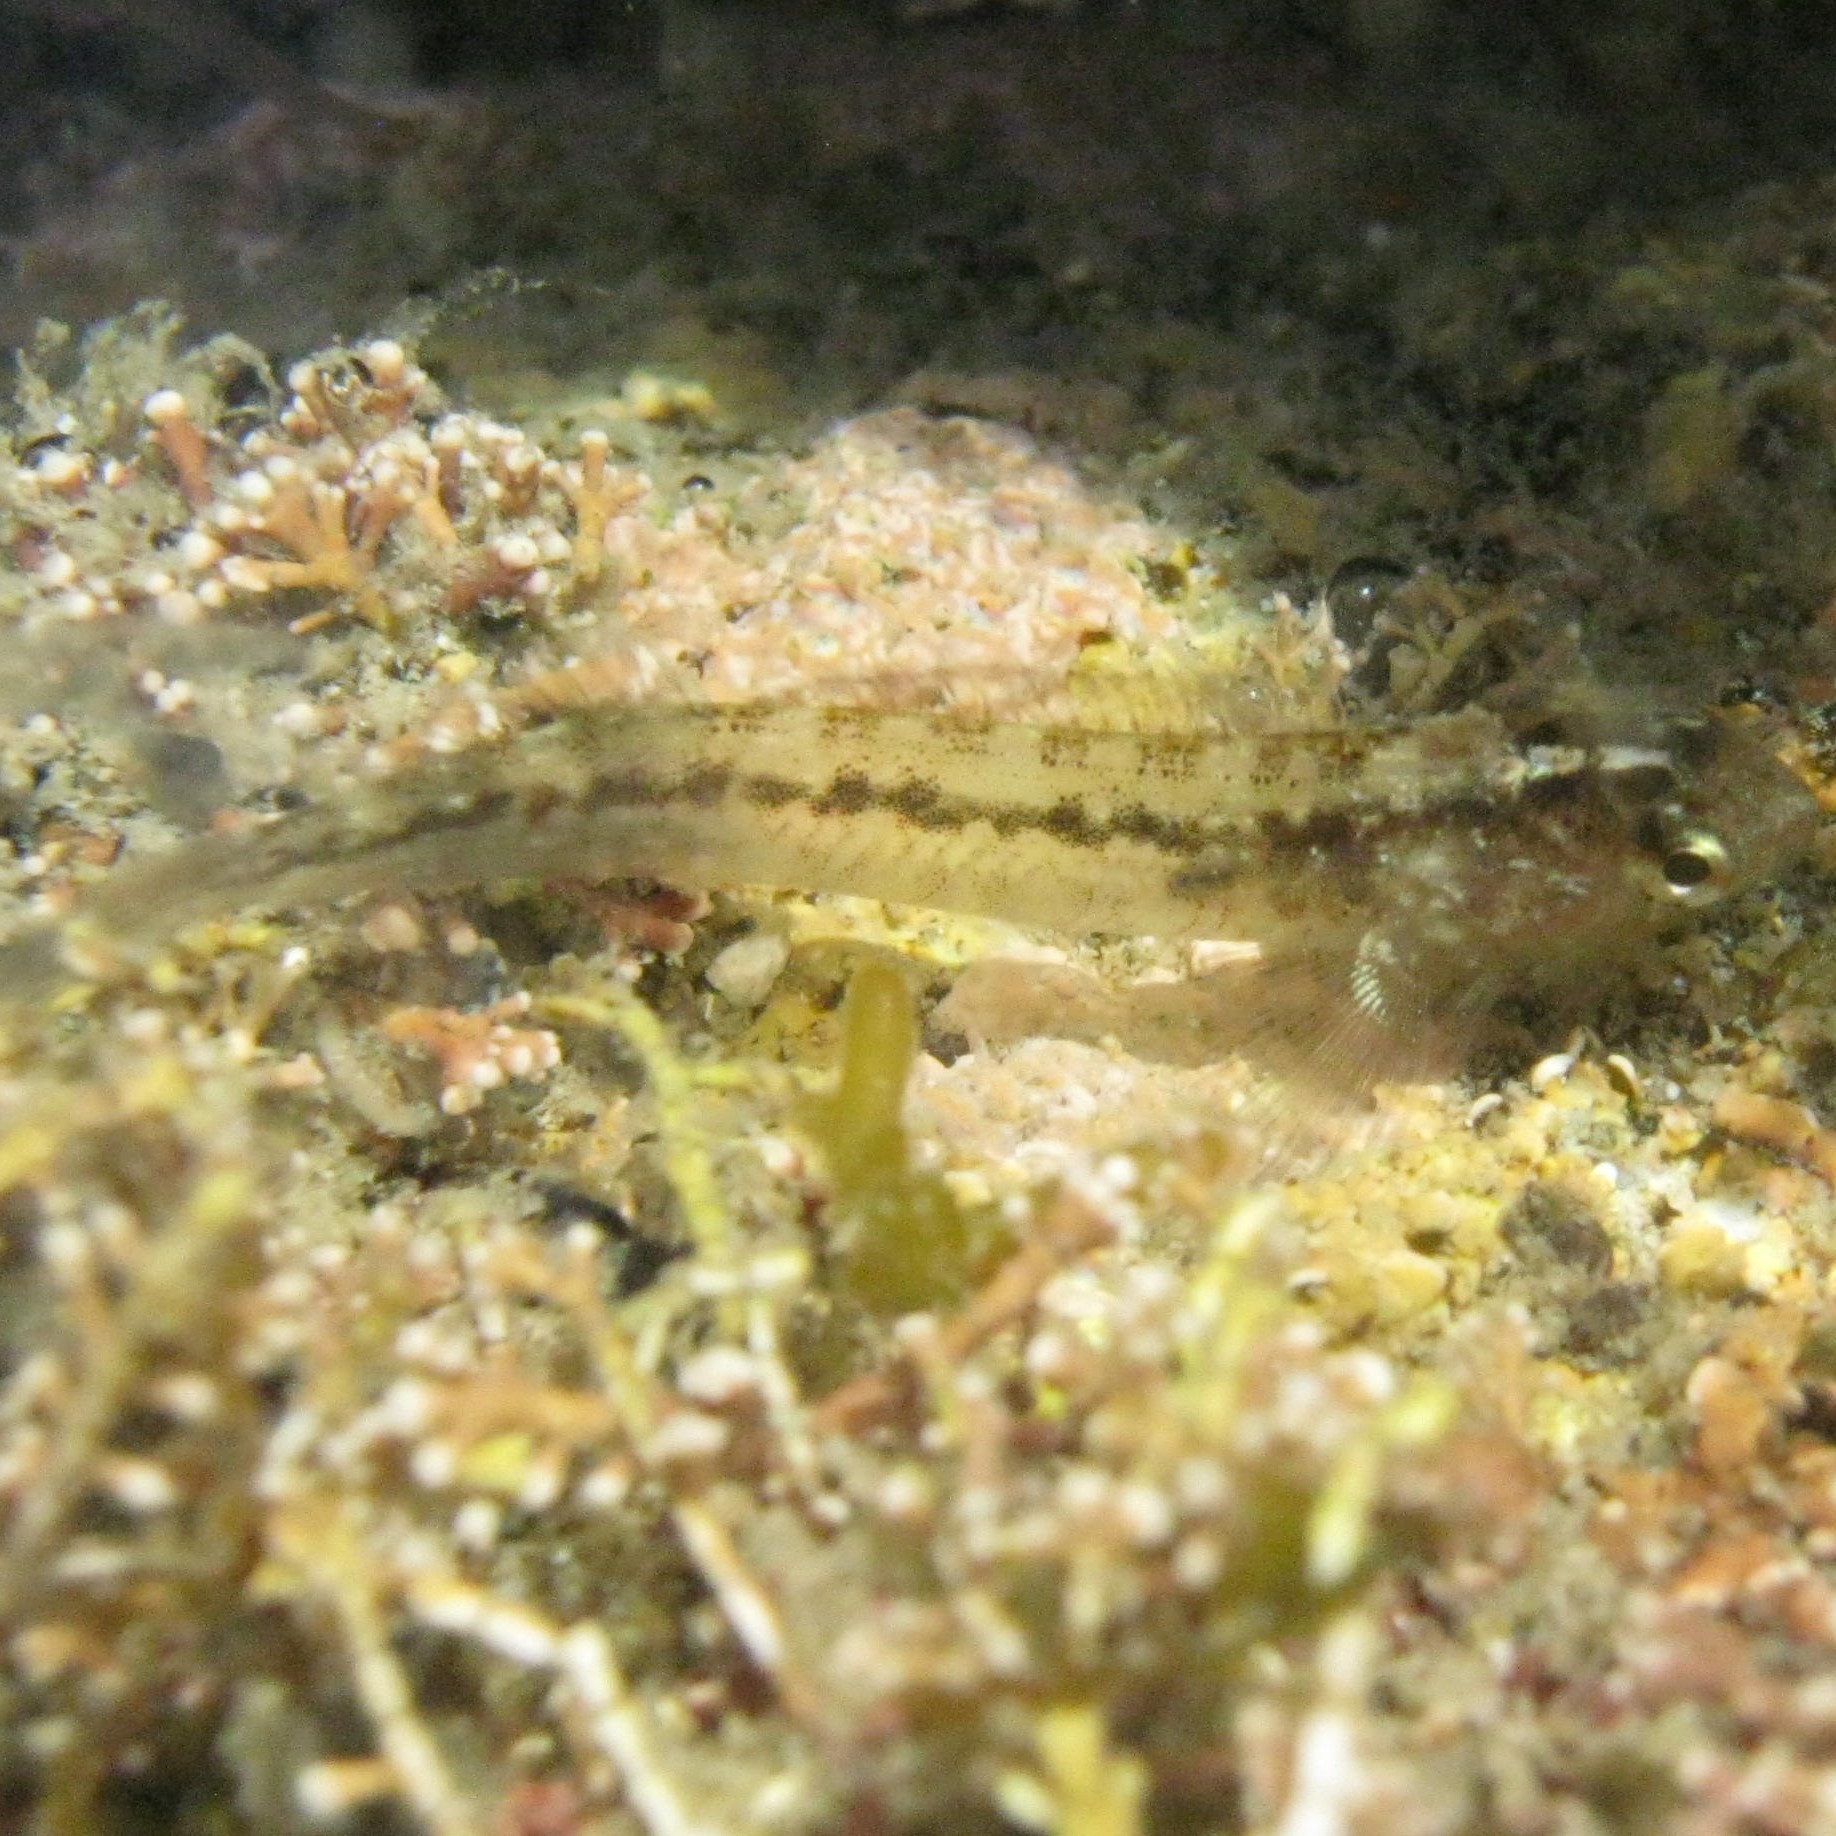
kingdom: Animalia
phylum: Chordata
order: Perciformes
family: Tripterygiidae
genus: Forsterygion
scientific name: Forsterygion lapillum
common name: Common triplefin
